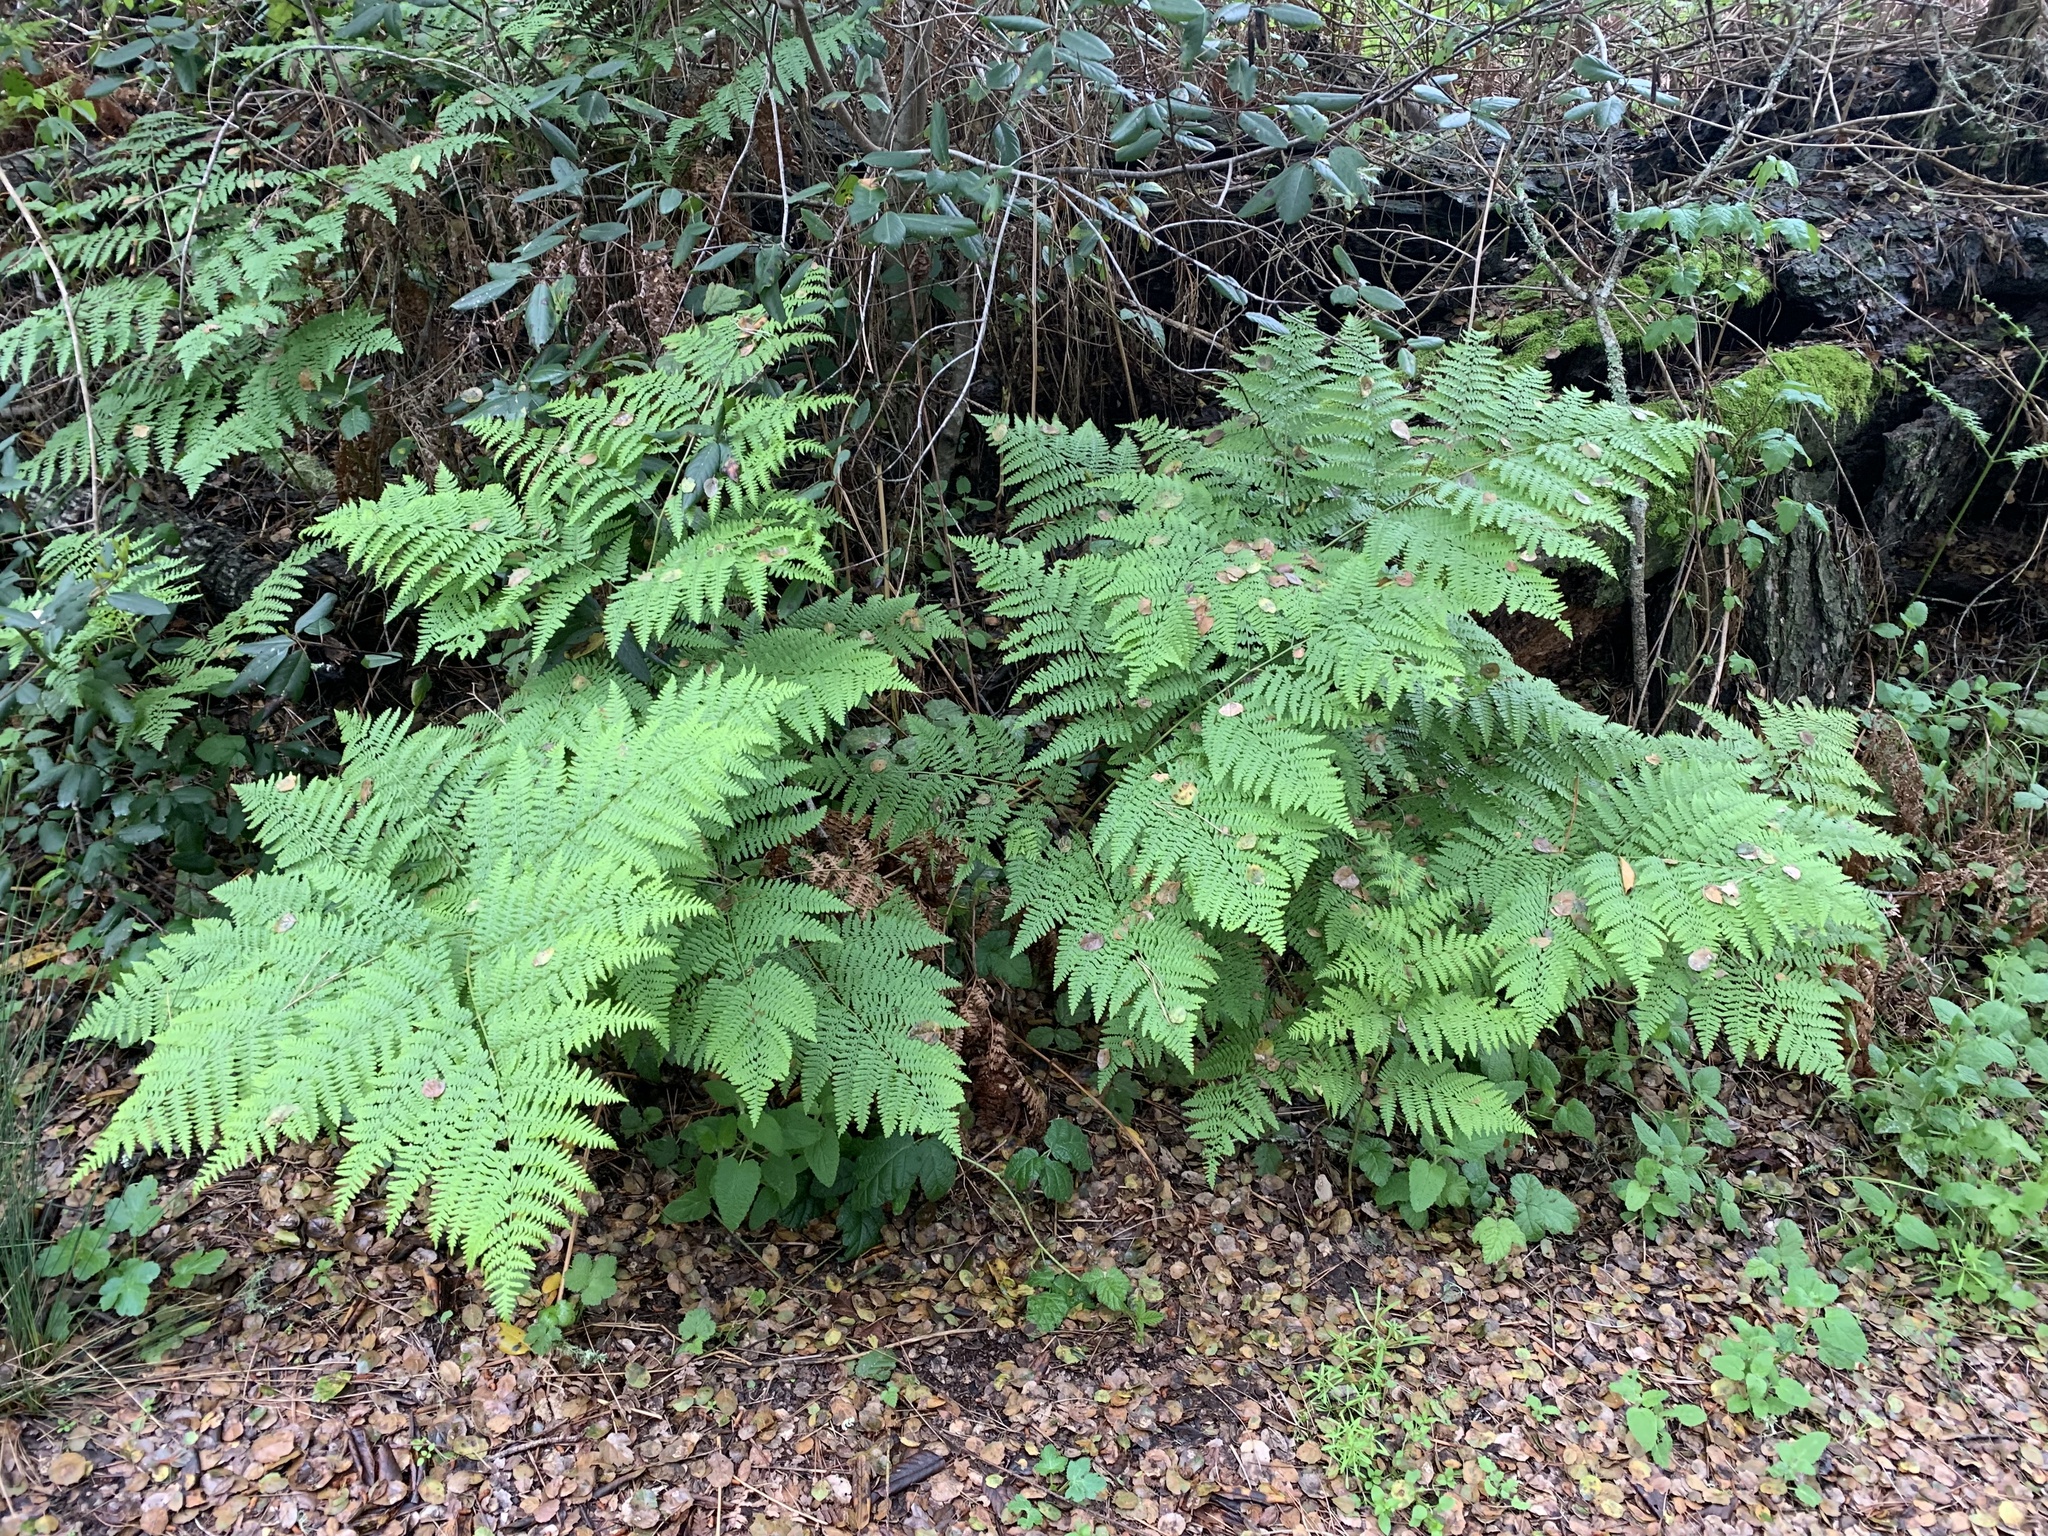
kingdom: Plantae
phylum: Tracheophyta
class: Polypodiopsida
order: Polypodiales
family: Dennstaedtiaceae
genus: Pteridium
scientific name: Pteridium aquilinum
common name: Bracken
